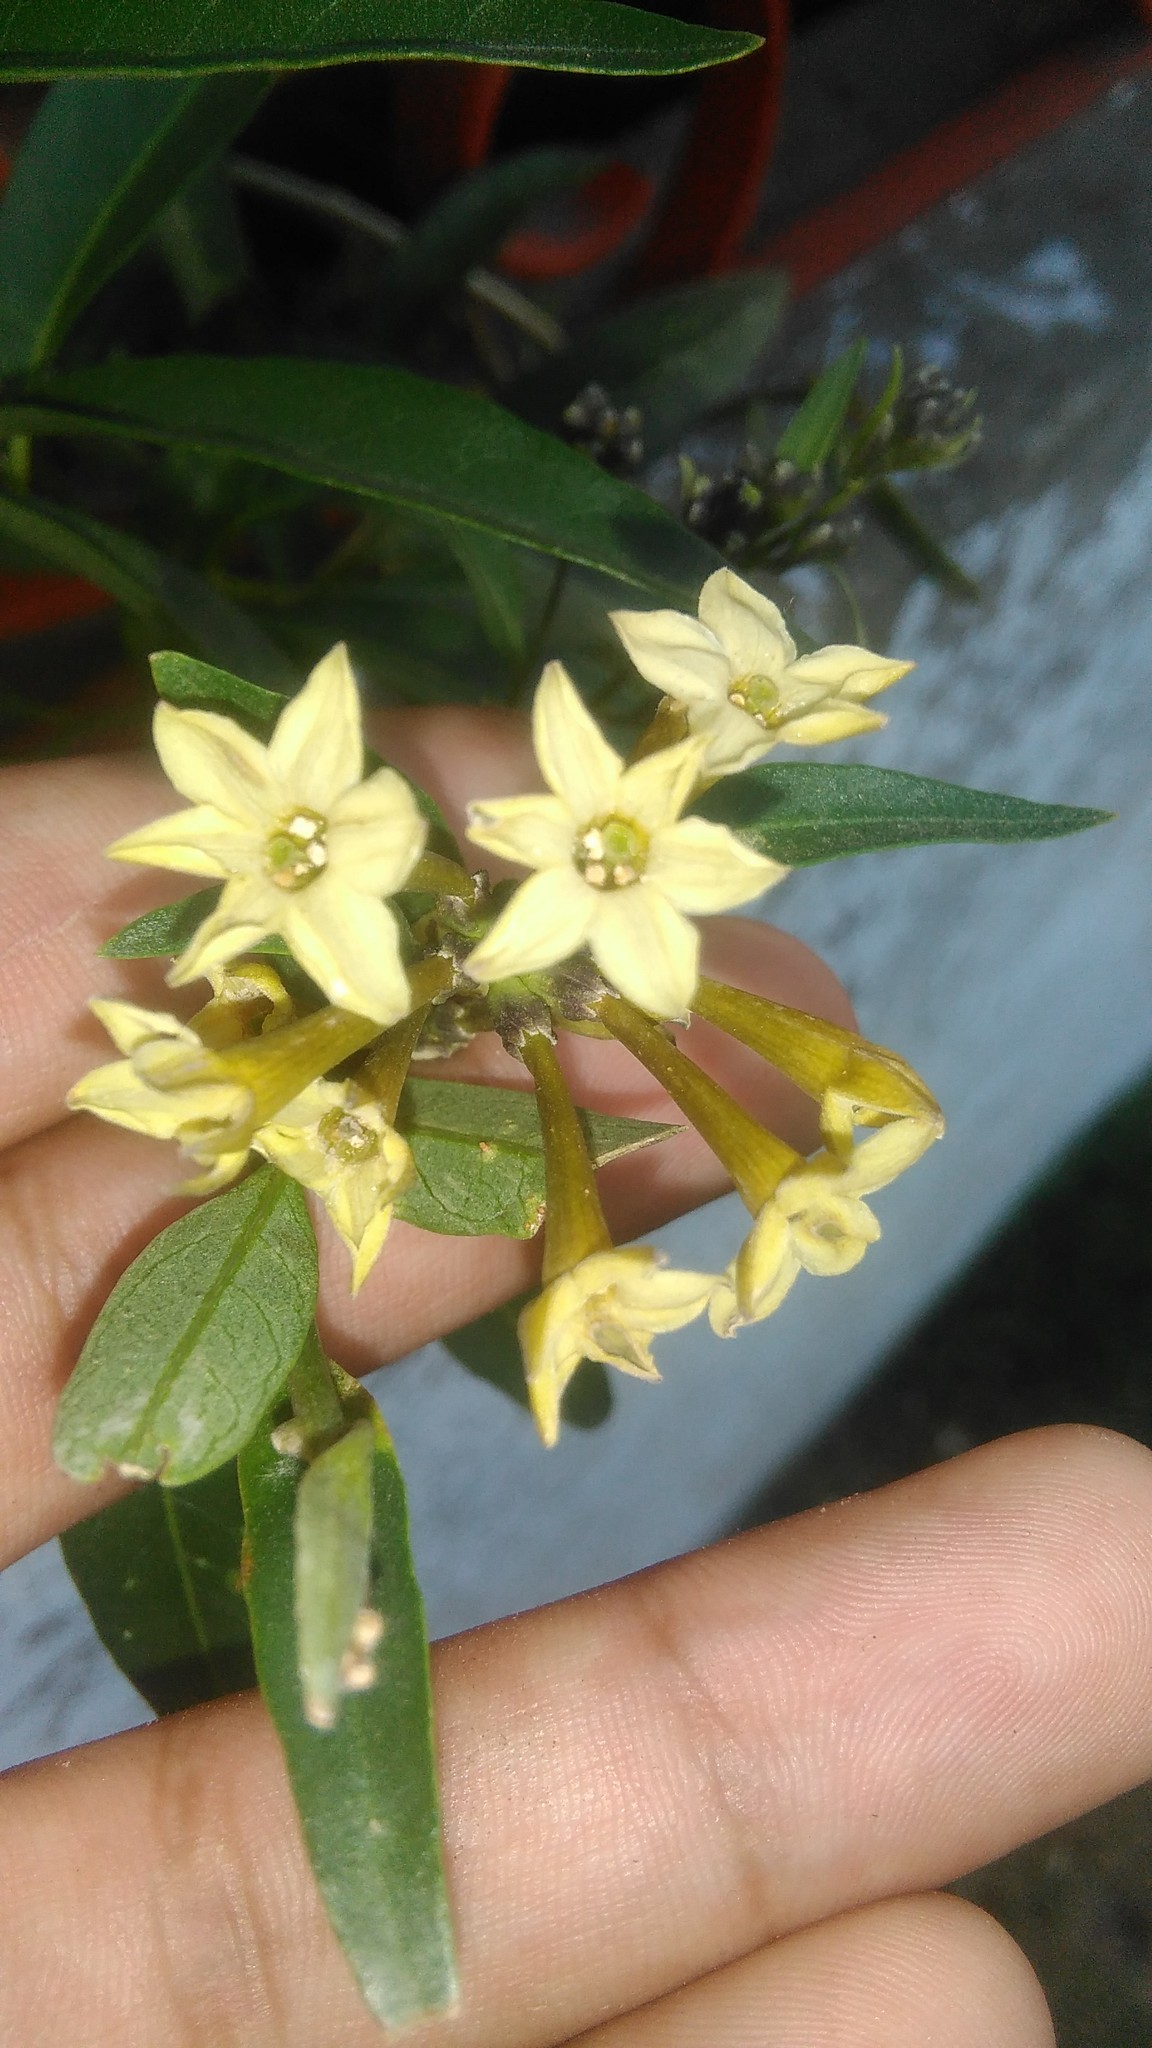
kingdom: Plantae
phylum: Tracheophyta
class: Magnoliopsida
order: Solanales
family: Solanaceae
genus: Cestrum
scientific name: Cestrum parqui
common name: Chilean cestrum
